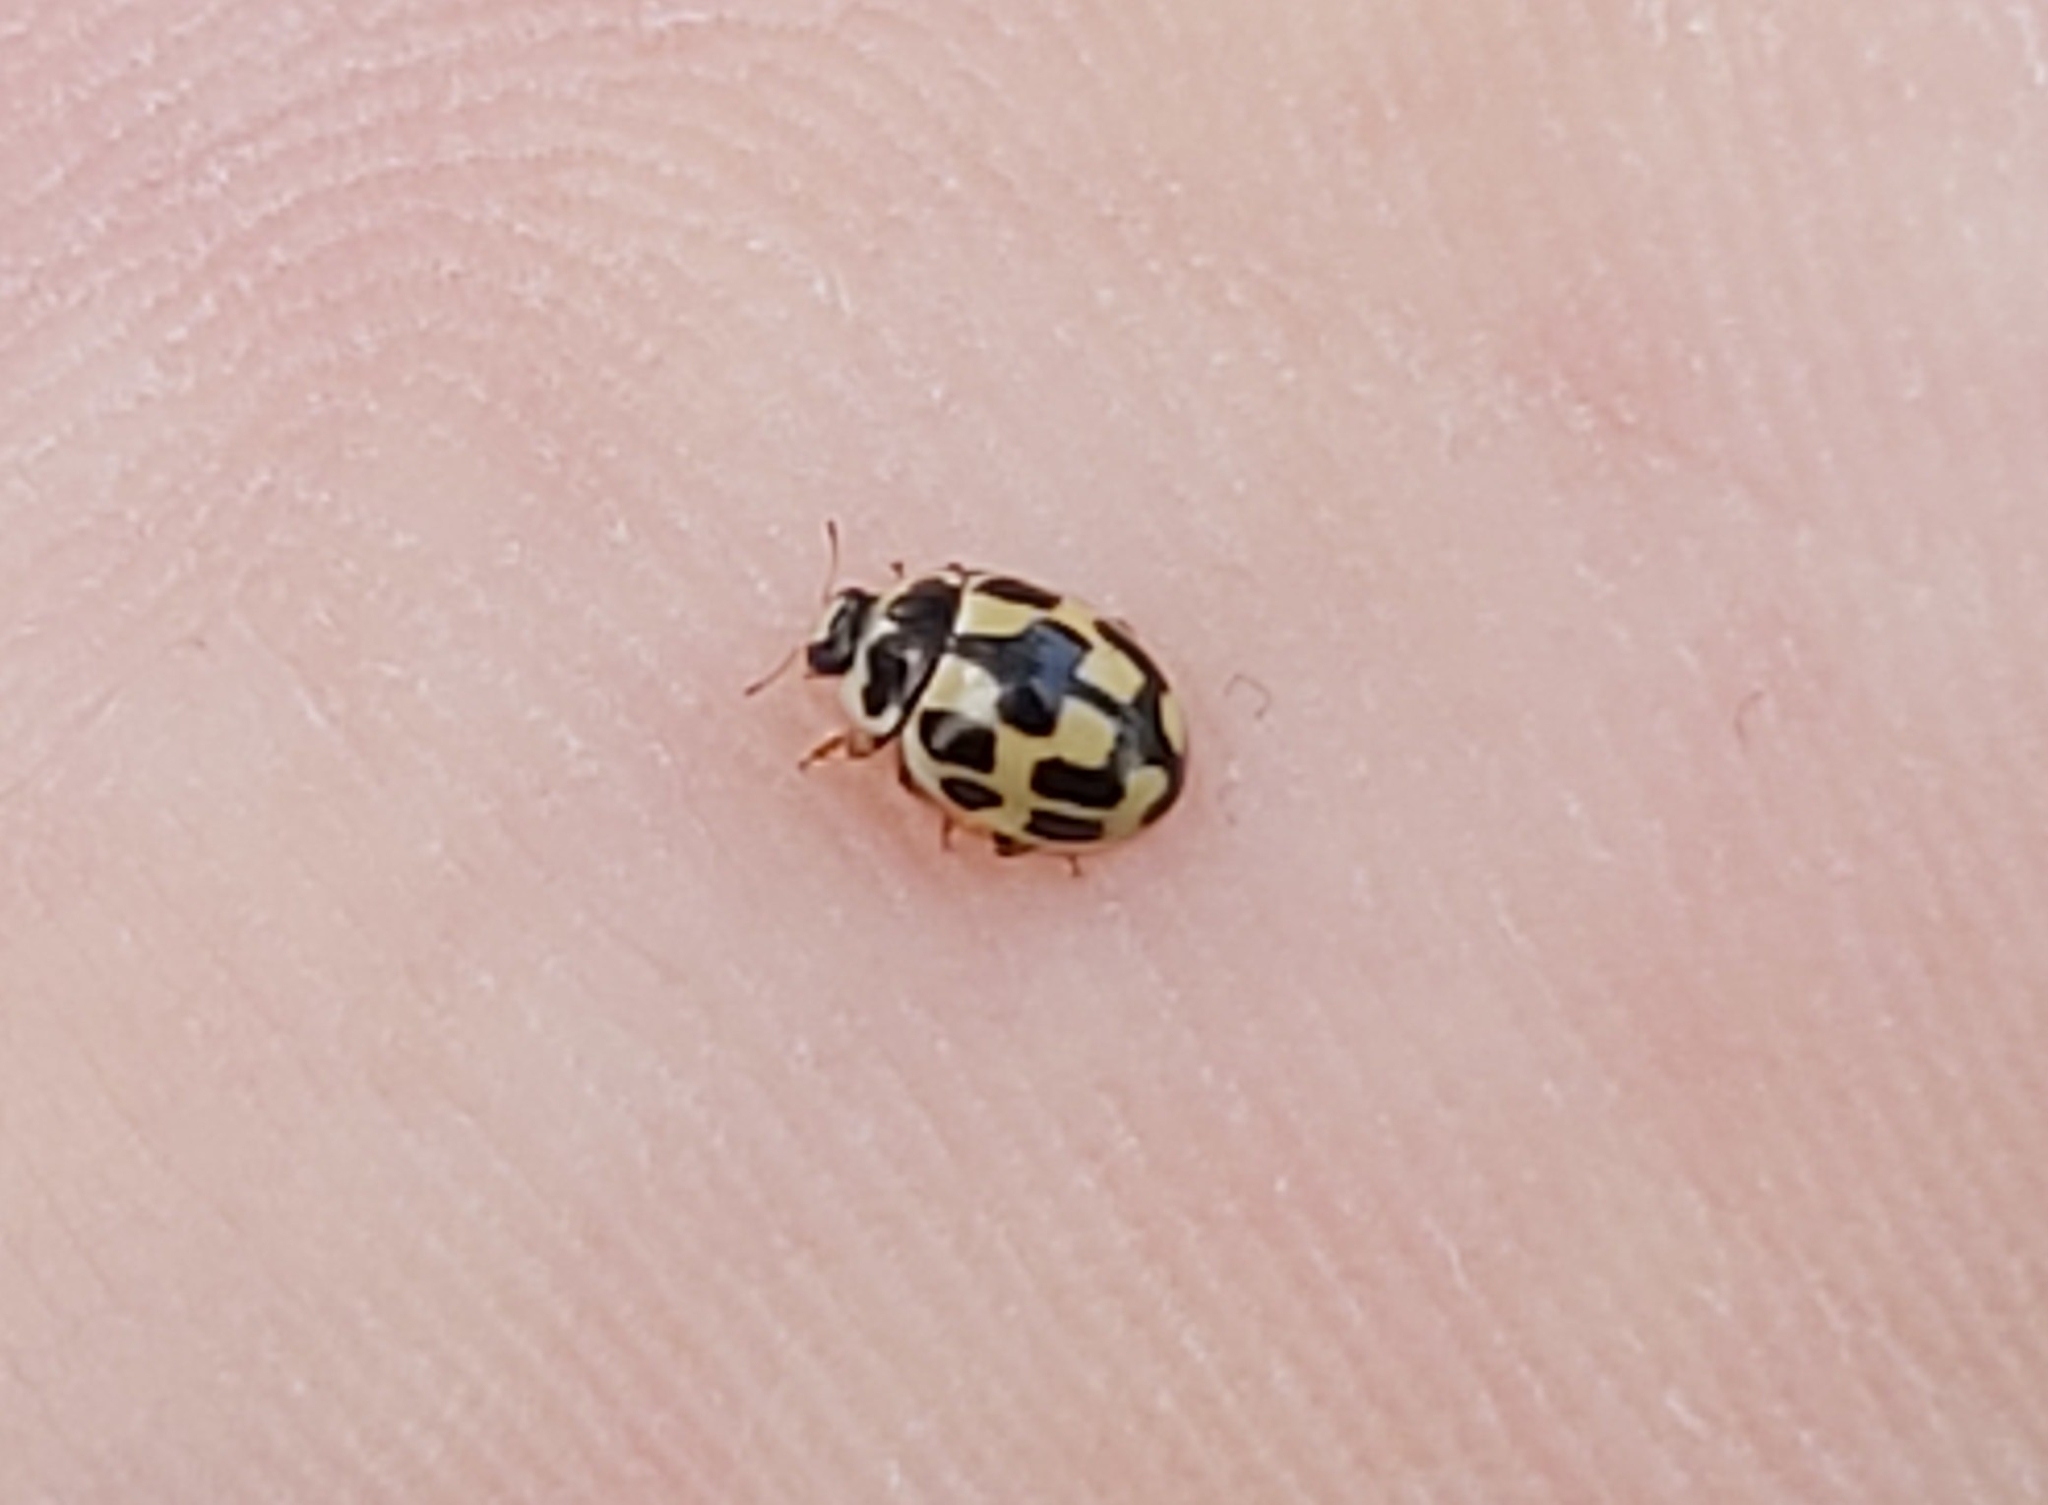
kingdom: Animalia
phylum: Arthropoda
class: Insecta
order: Coleoptera
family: Coccinellidae
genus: Propylaea
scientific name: Propylaea quatuordecimpunctata
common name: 14-spotted ladybird beetle
